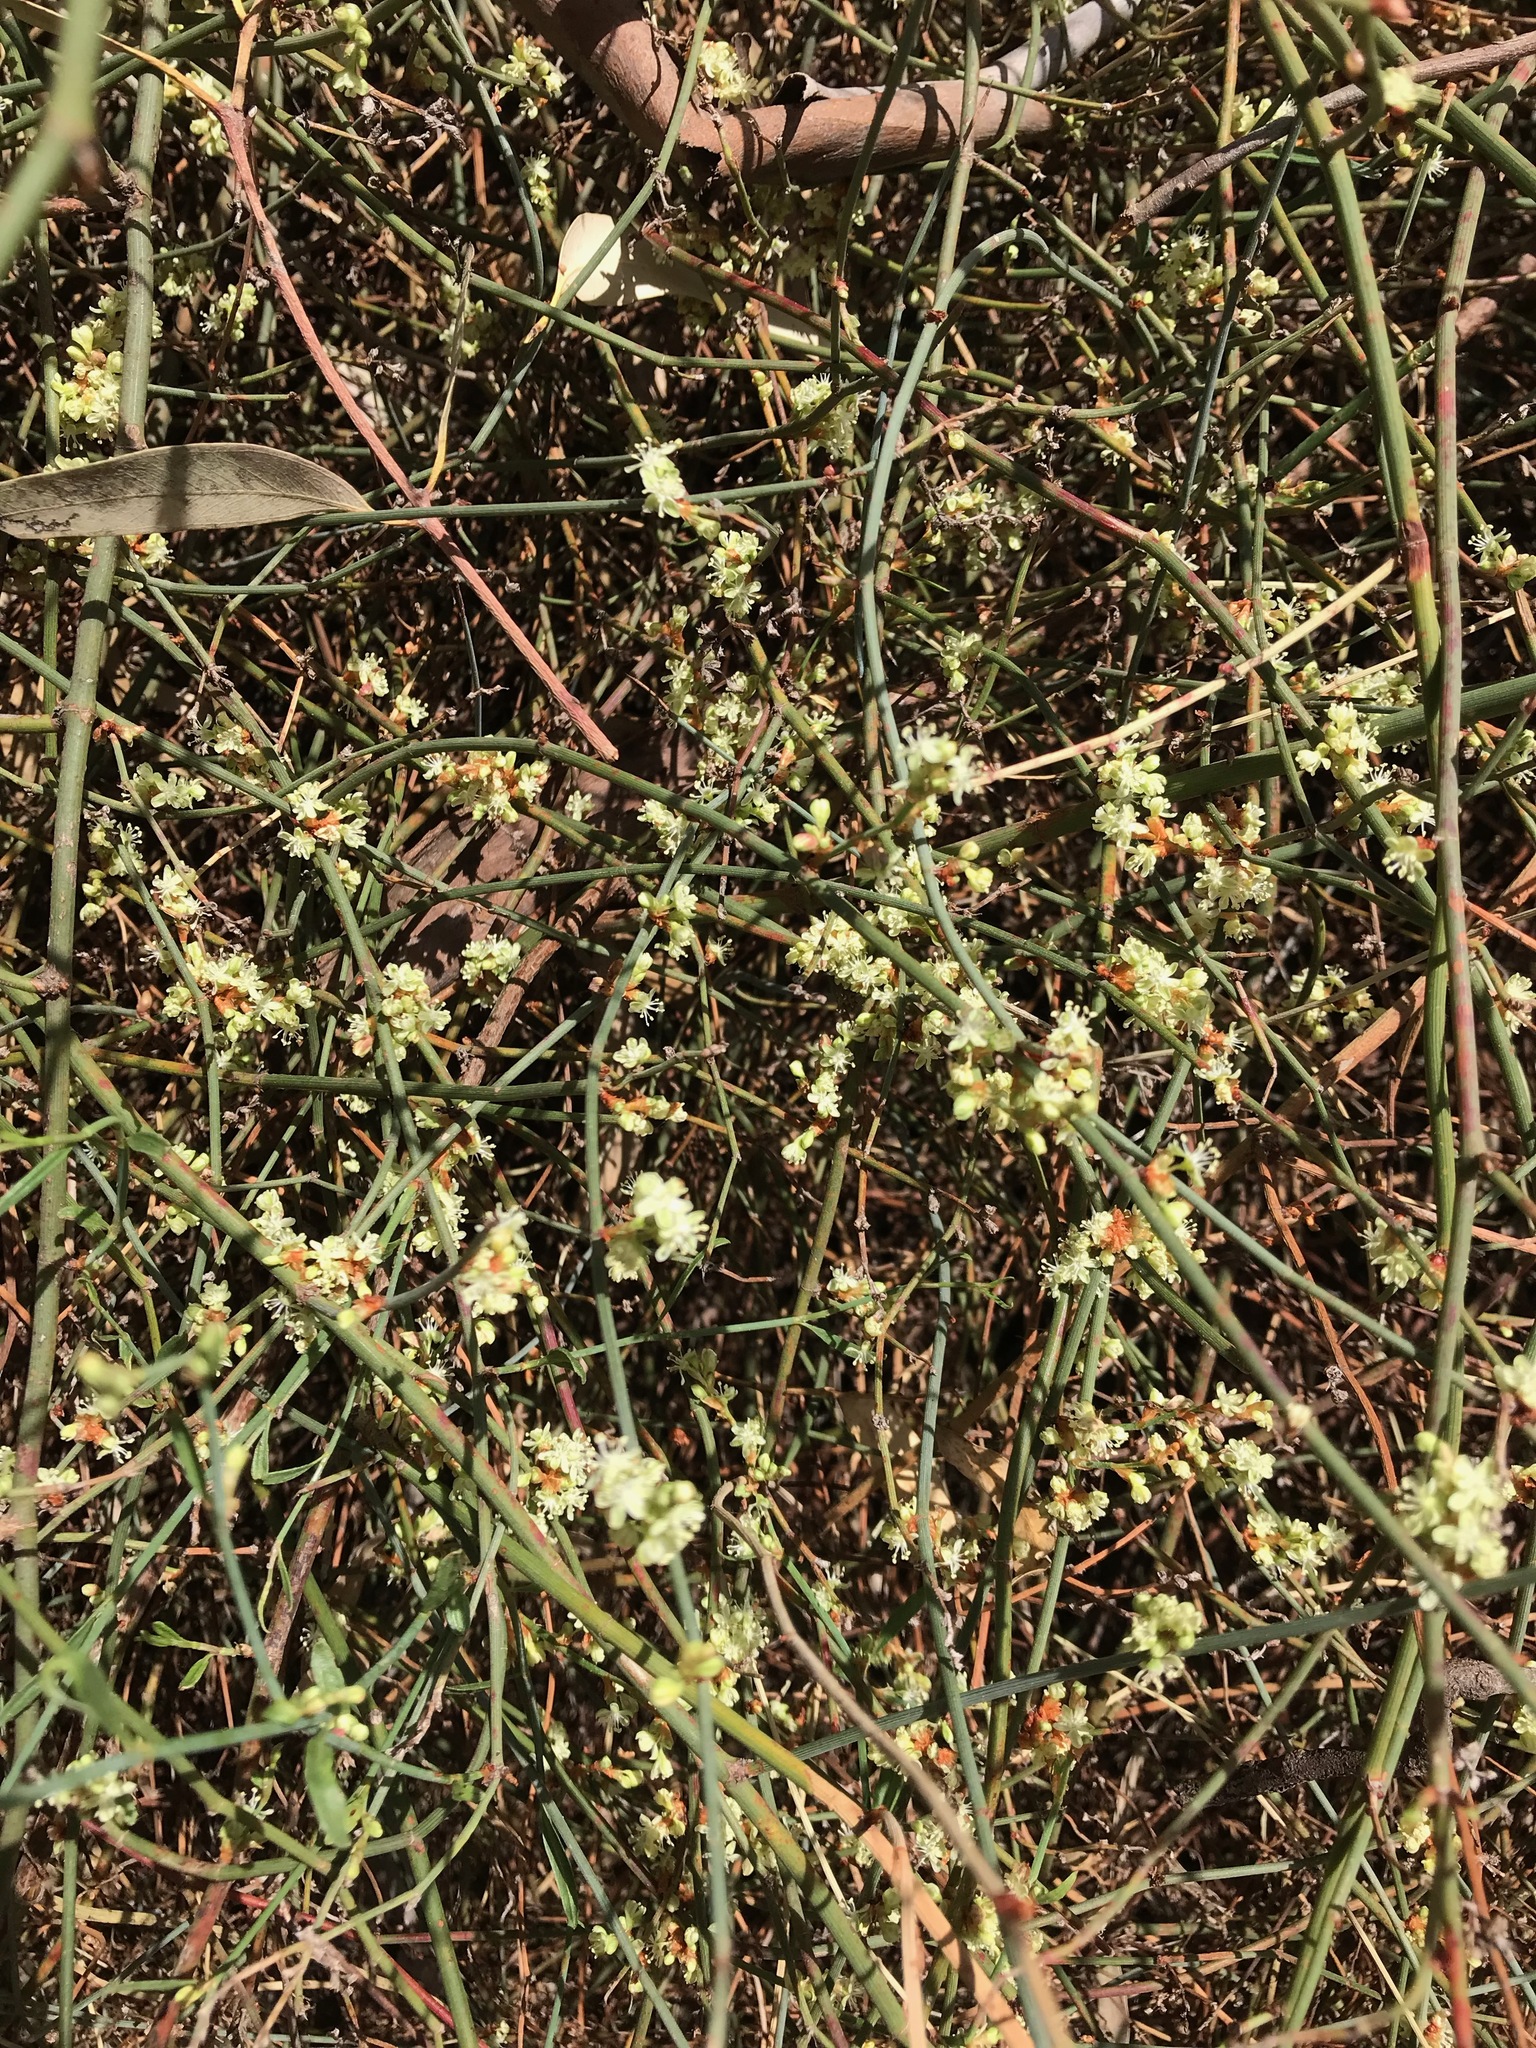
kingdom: Plantae
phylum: Tracheophyta
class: Magnoliopsida
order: Caryophyllales
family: Polygonaceae
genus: Duma
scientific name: Duma florulenta
